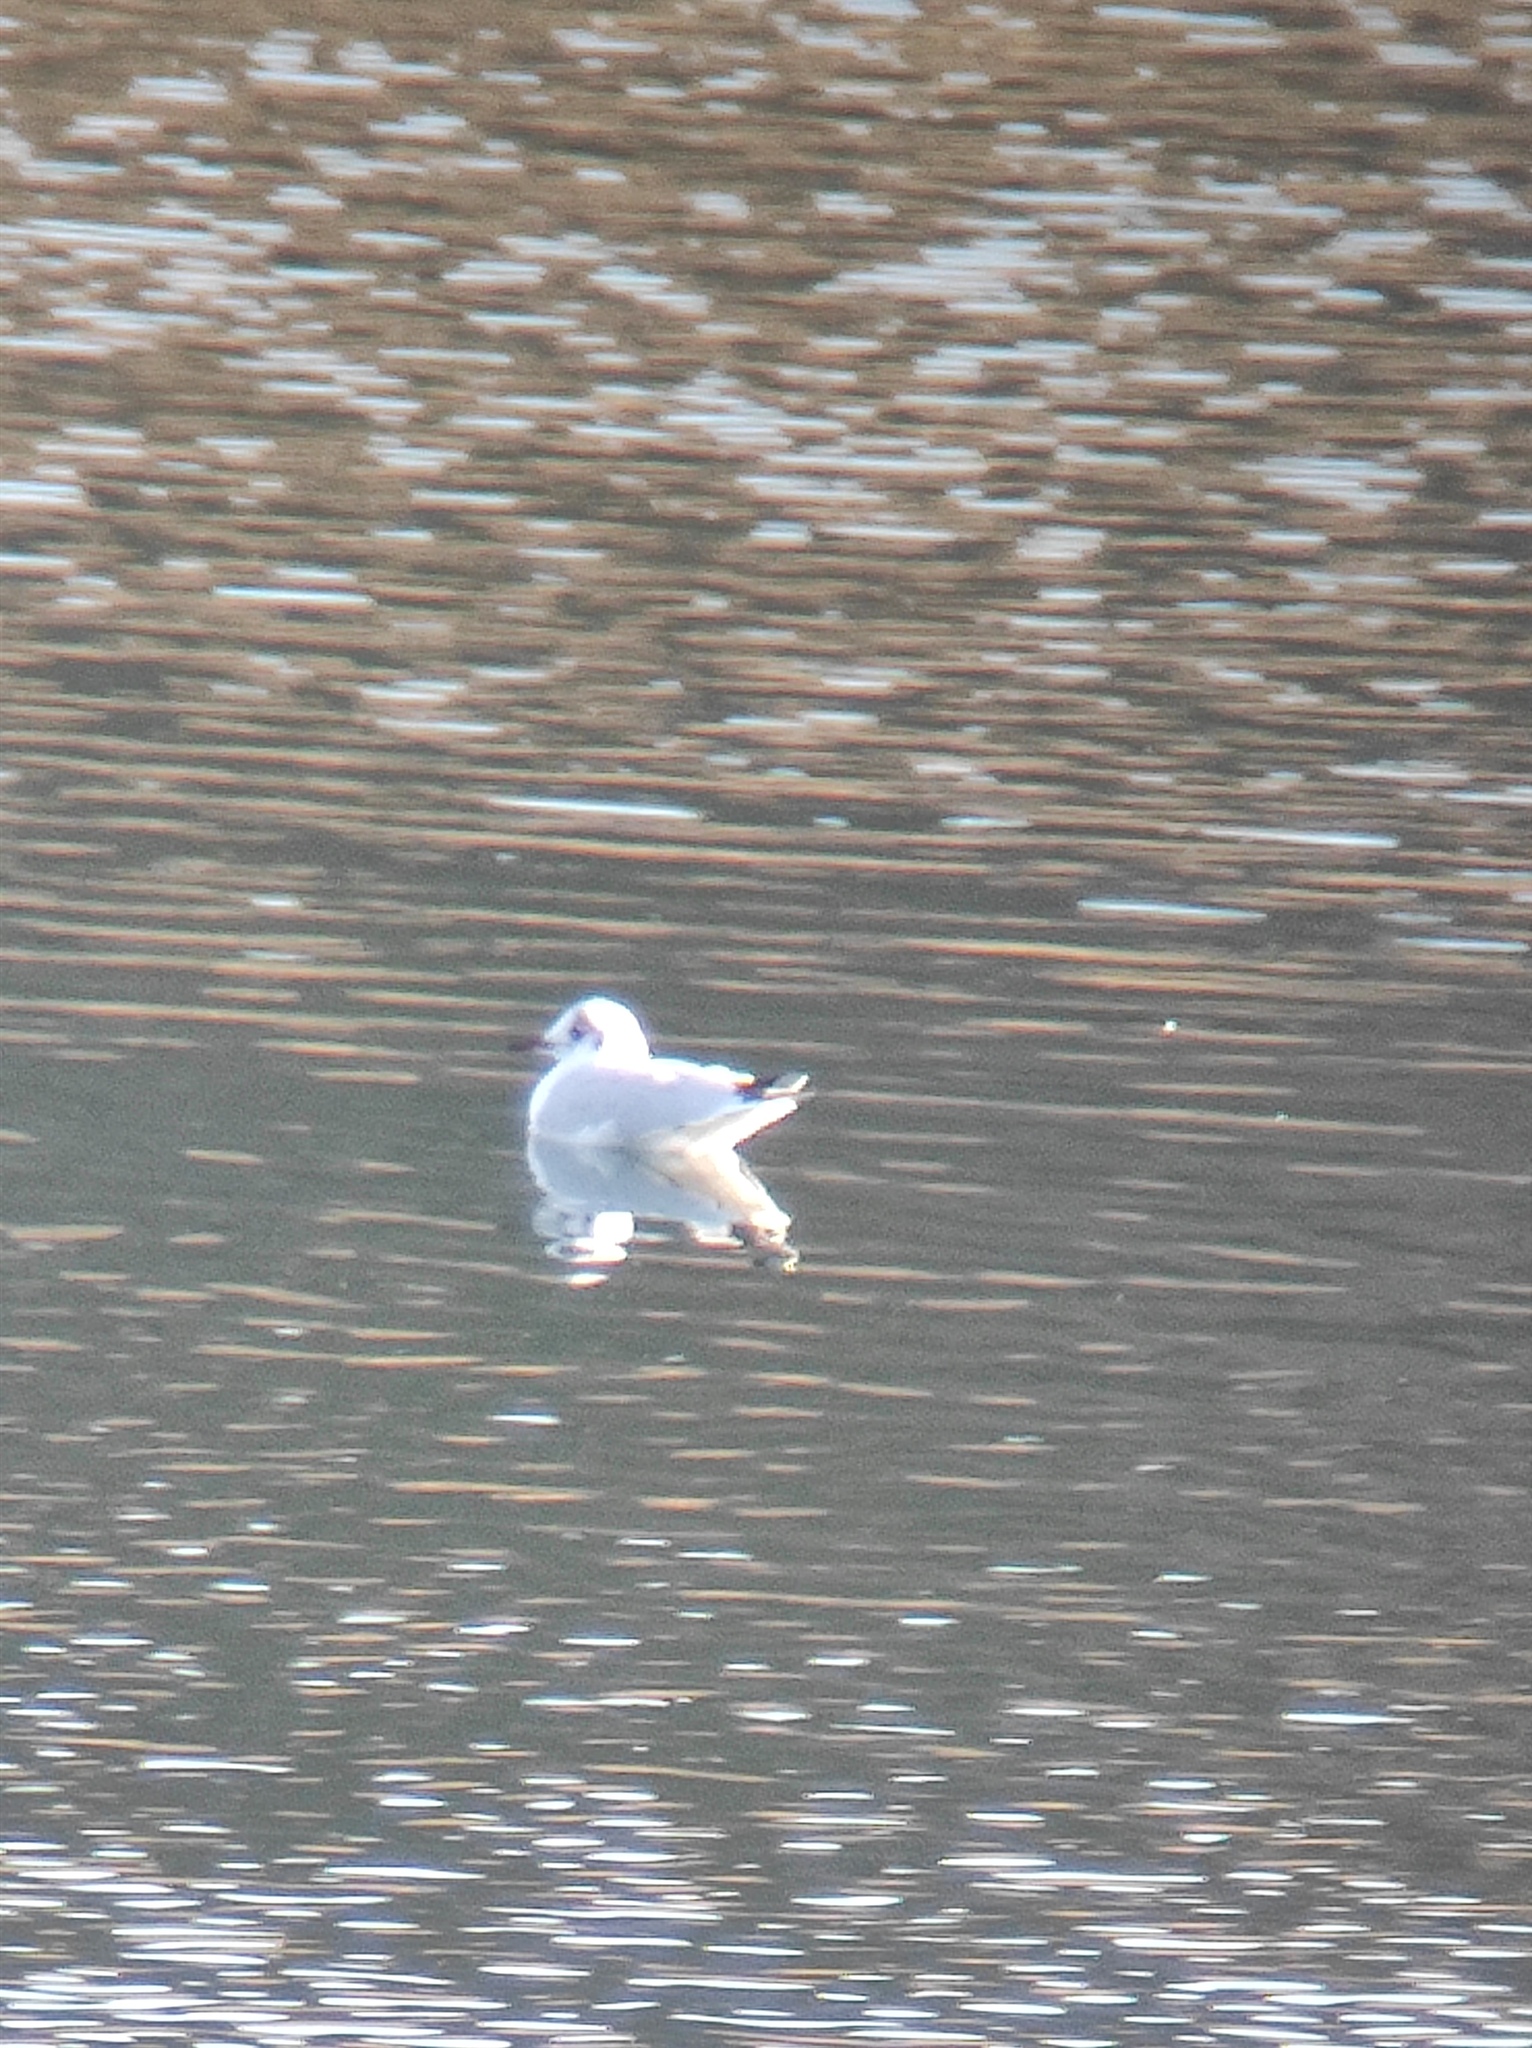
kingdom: Animalia
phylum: Chordata
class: Aves
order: Charadriiformes
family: Laridae
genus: Chroicocephalus
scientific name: Chroicocephalus ridibundus
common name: Black-headed gull
